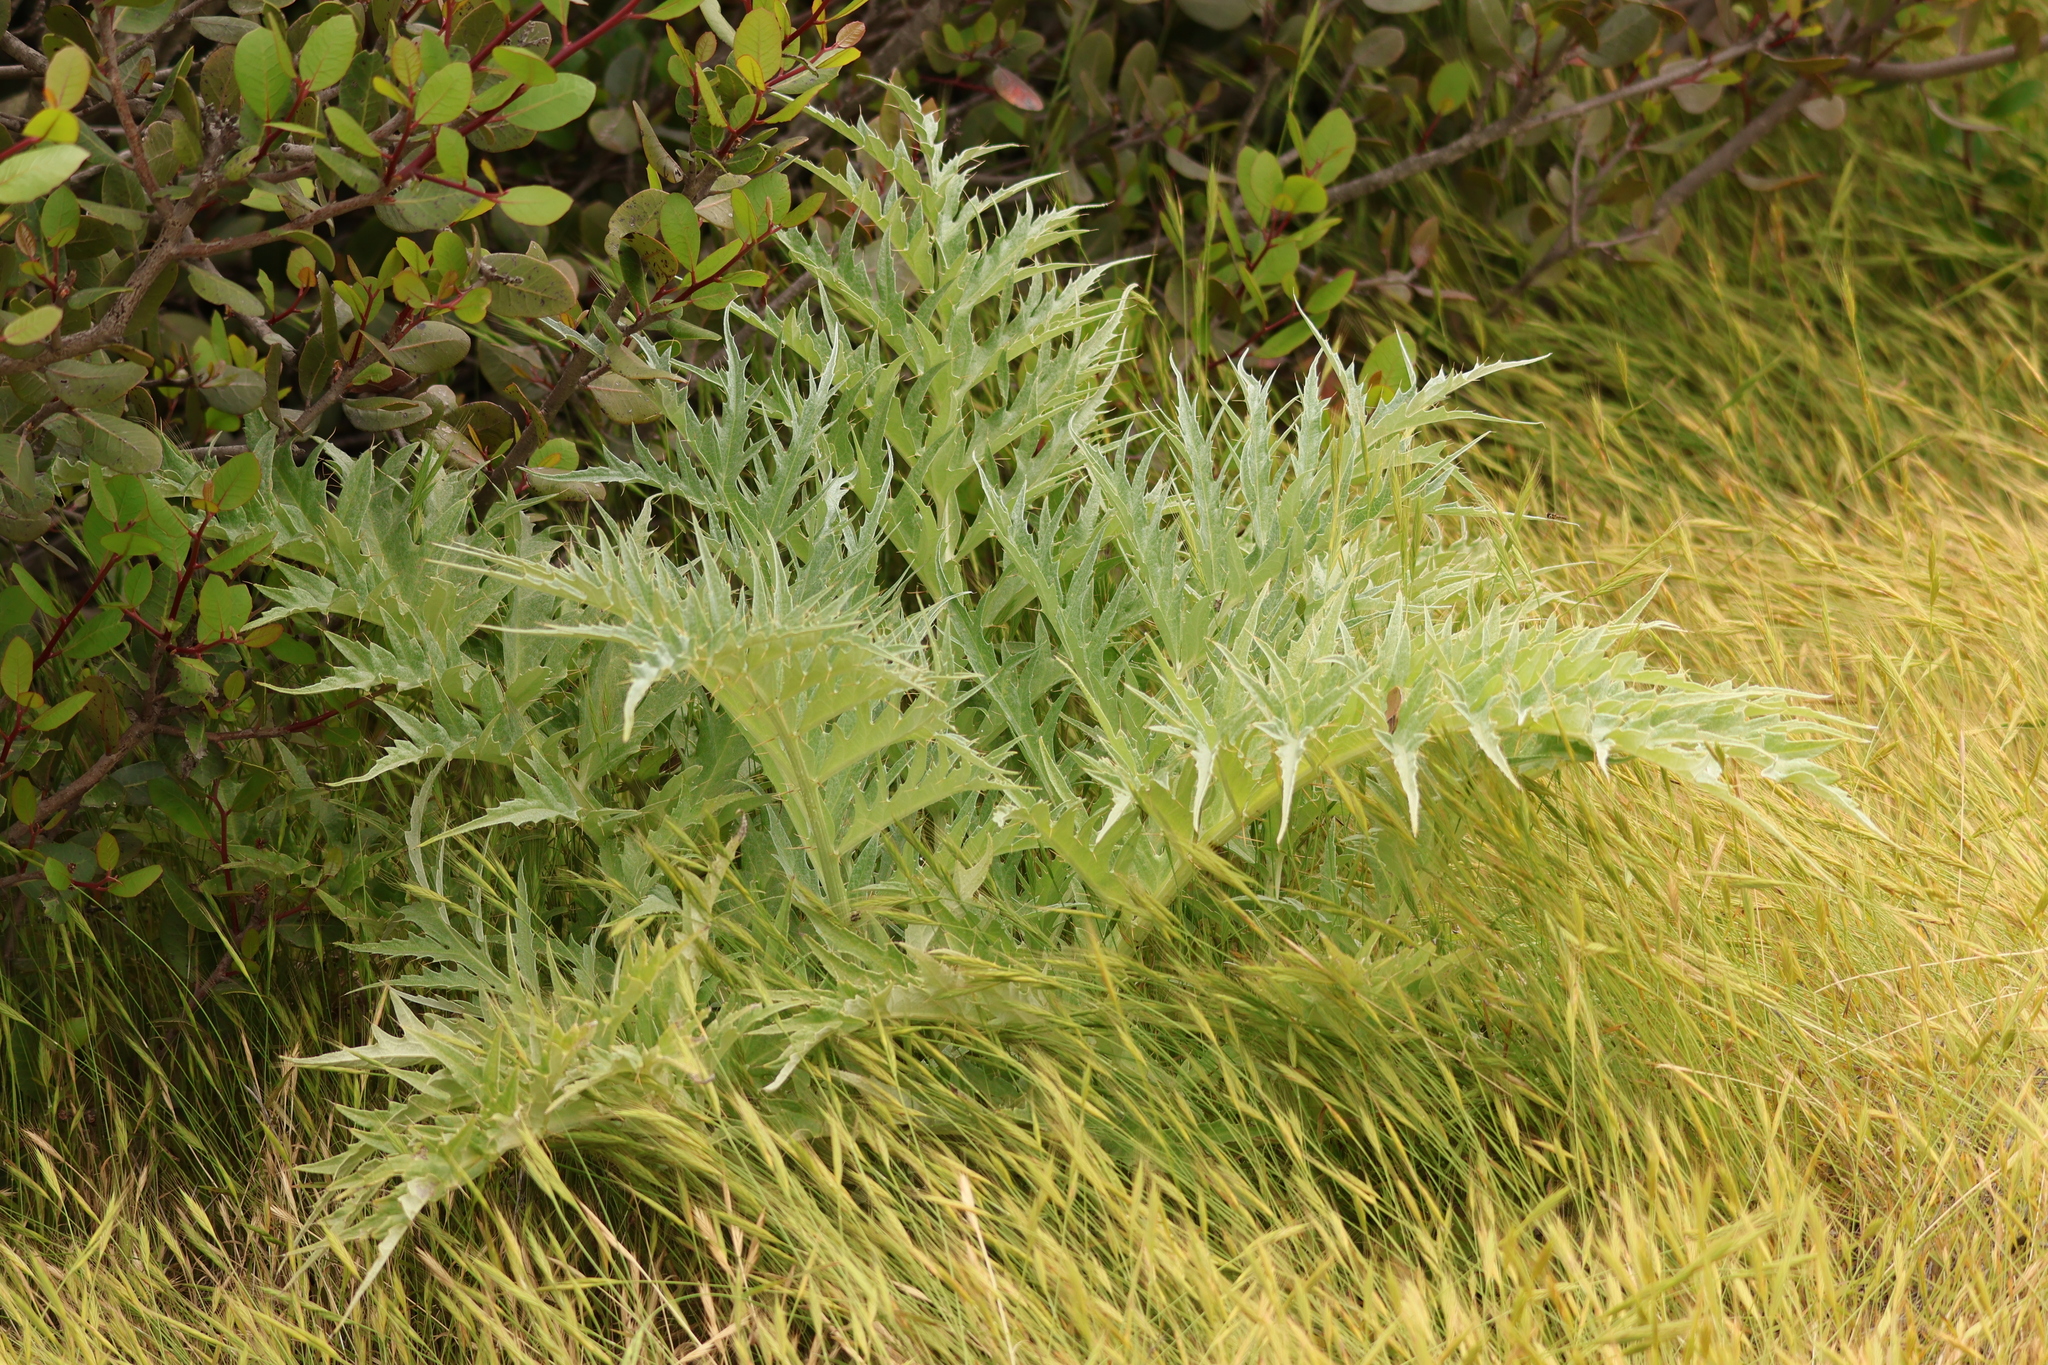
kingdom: Plantae
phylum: Tracheophyta
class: Magnoliopsida
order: Asterales
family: Asteraceae
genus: Cynara
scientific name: Cynara cardunculus
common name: Globe artichoke
